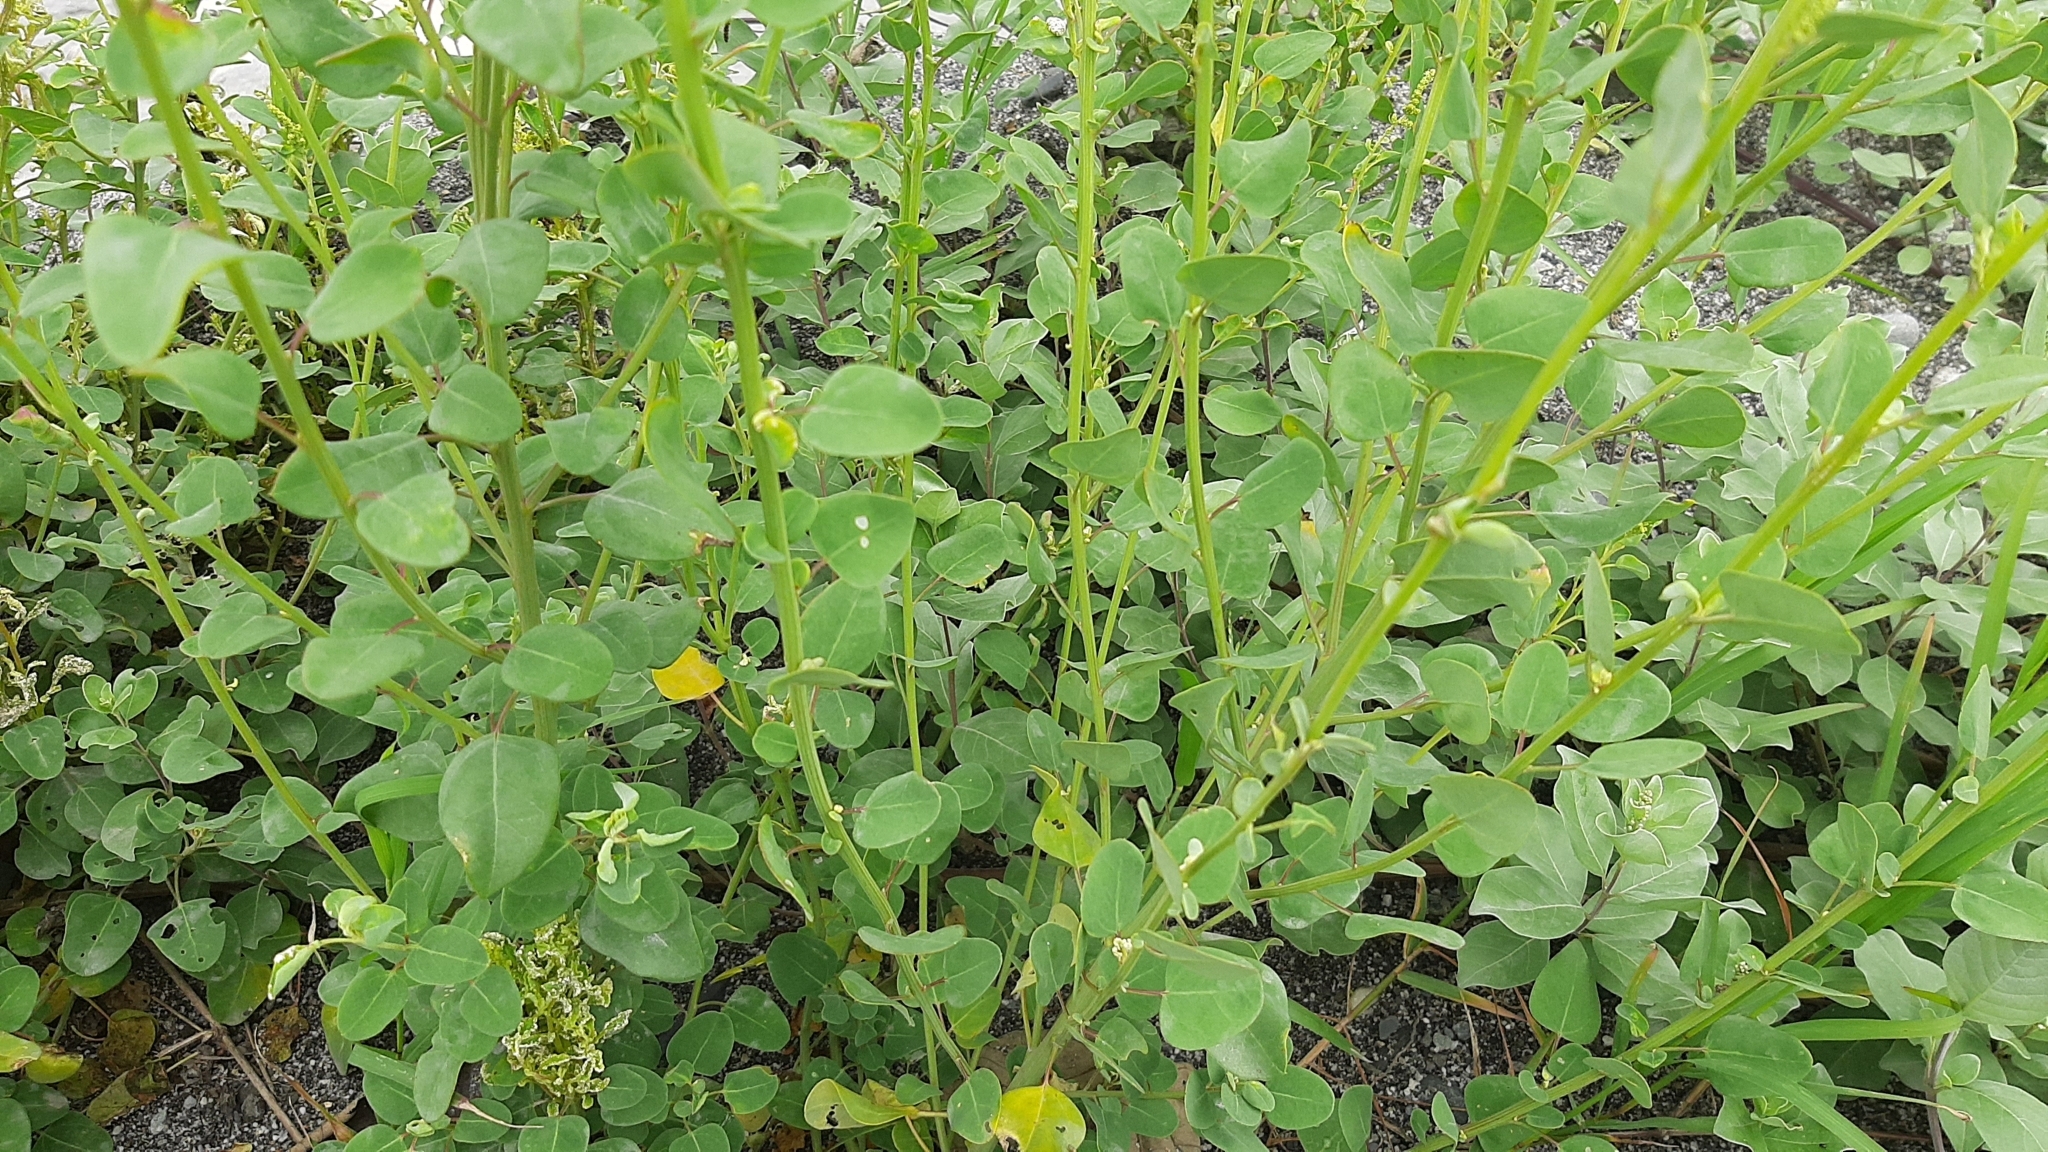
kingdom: Plantae
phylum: Tracheophyta
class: Magnoliopsida
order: Caryophyllales
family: Amaranthaceae
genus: Chenopodium
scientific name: Chenopodium acuminatum
